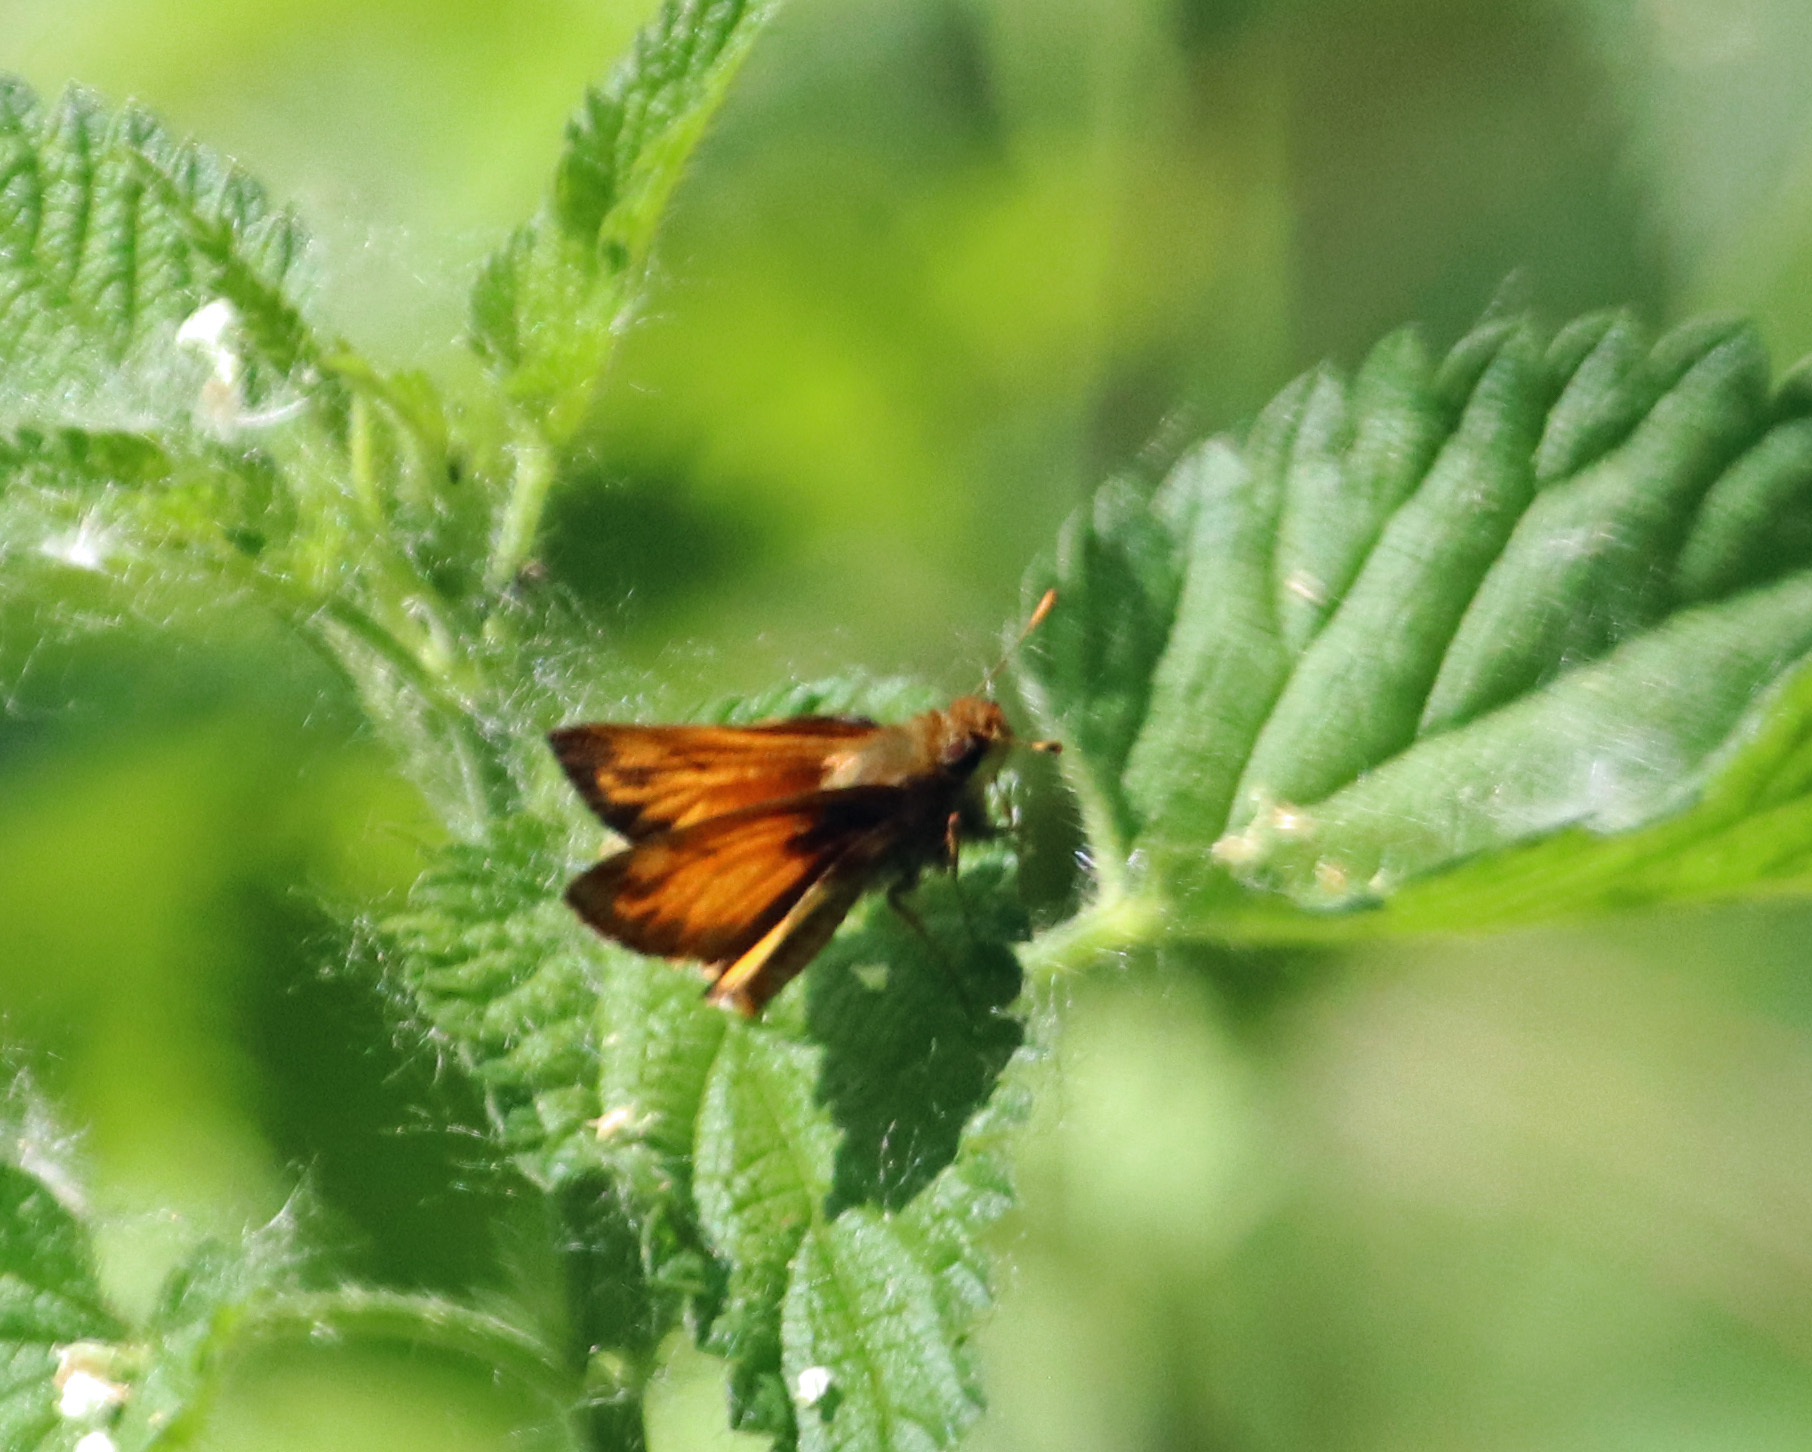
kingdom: Animalia
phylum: Arthropoda
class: Insecta
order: Lepidoptera
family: Hesperiidae
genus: Lon
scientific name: Lon zabulon
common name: Zabulon skipper
